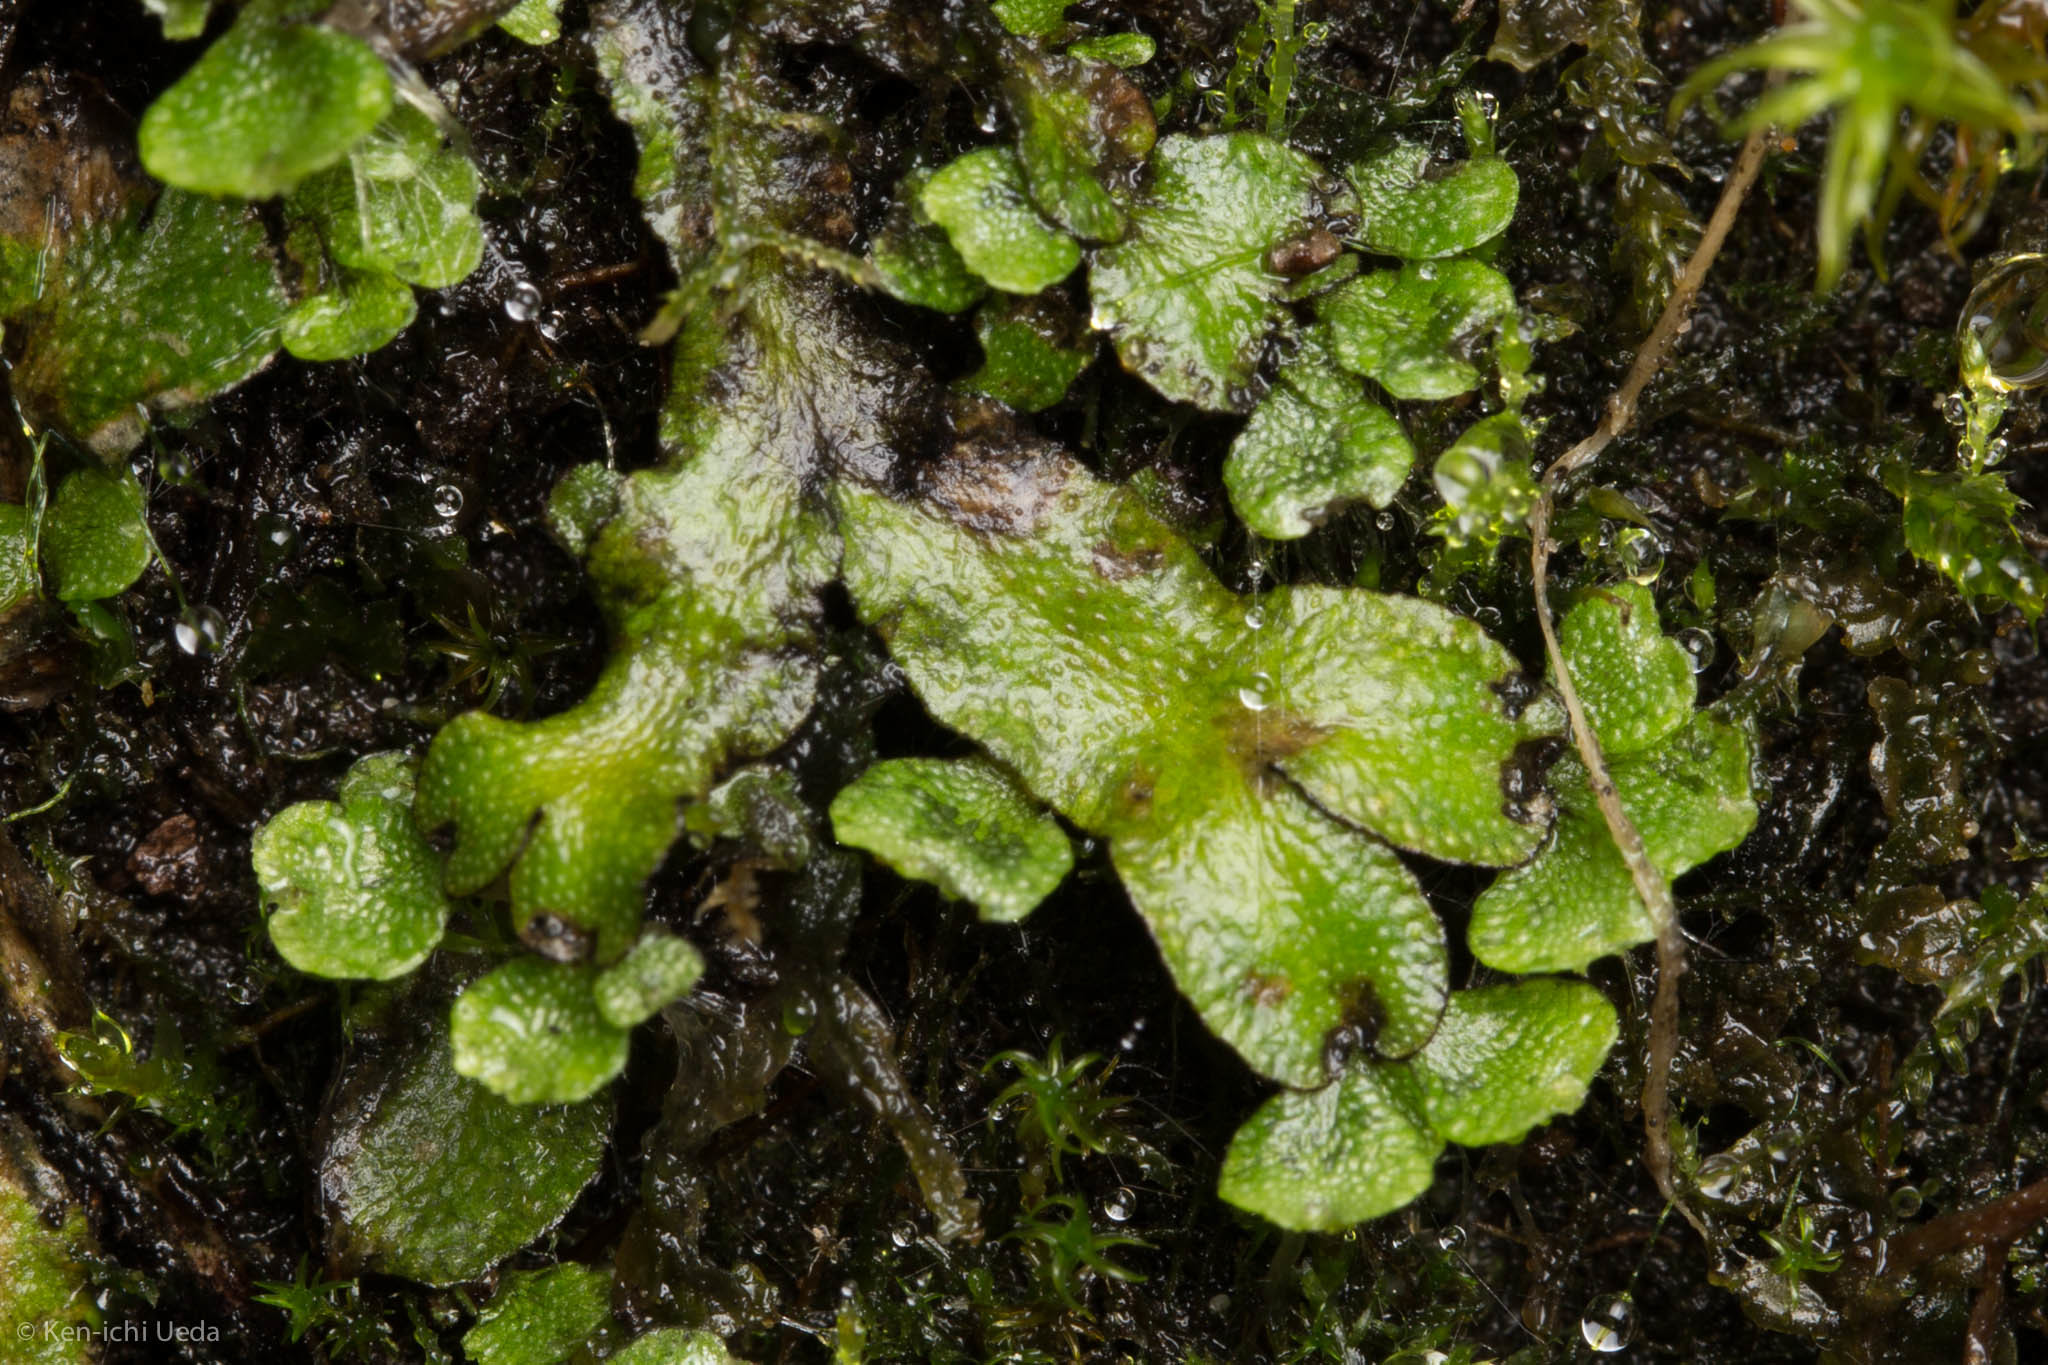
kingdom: Plantae
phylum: Marchantiophyta
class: Marchantiopsida
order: Marchantiales
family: Targioniaceae
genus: Targionia
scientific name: Targionia hypophylla
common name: Orobus-seed liverwort
